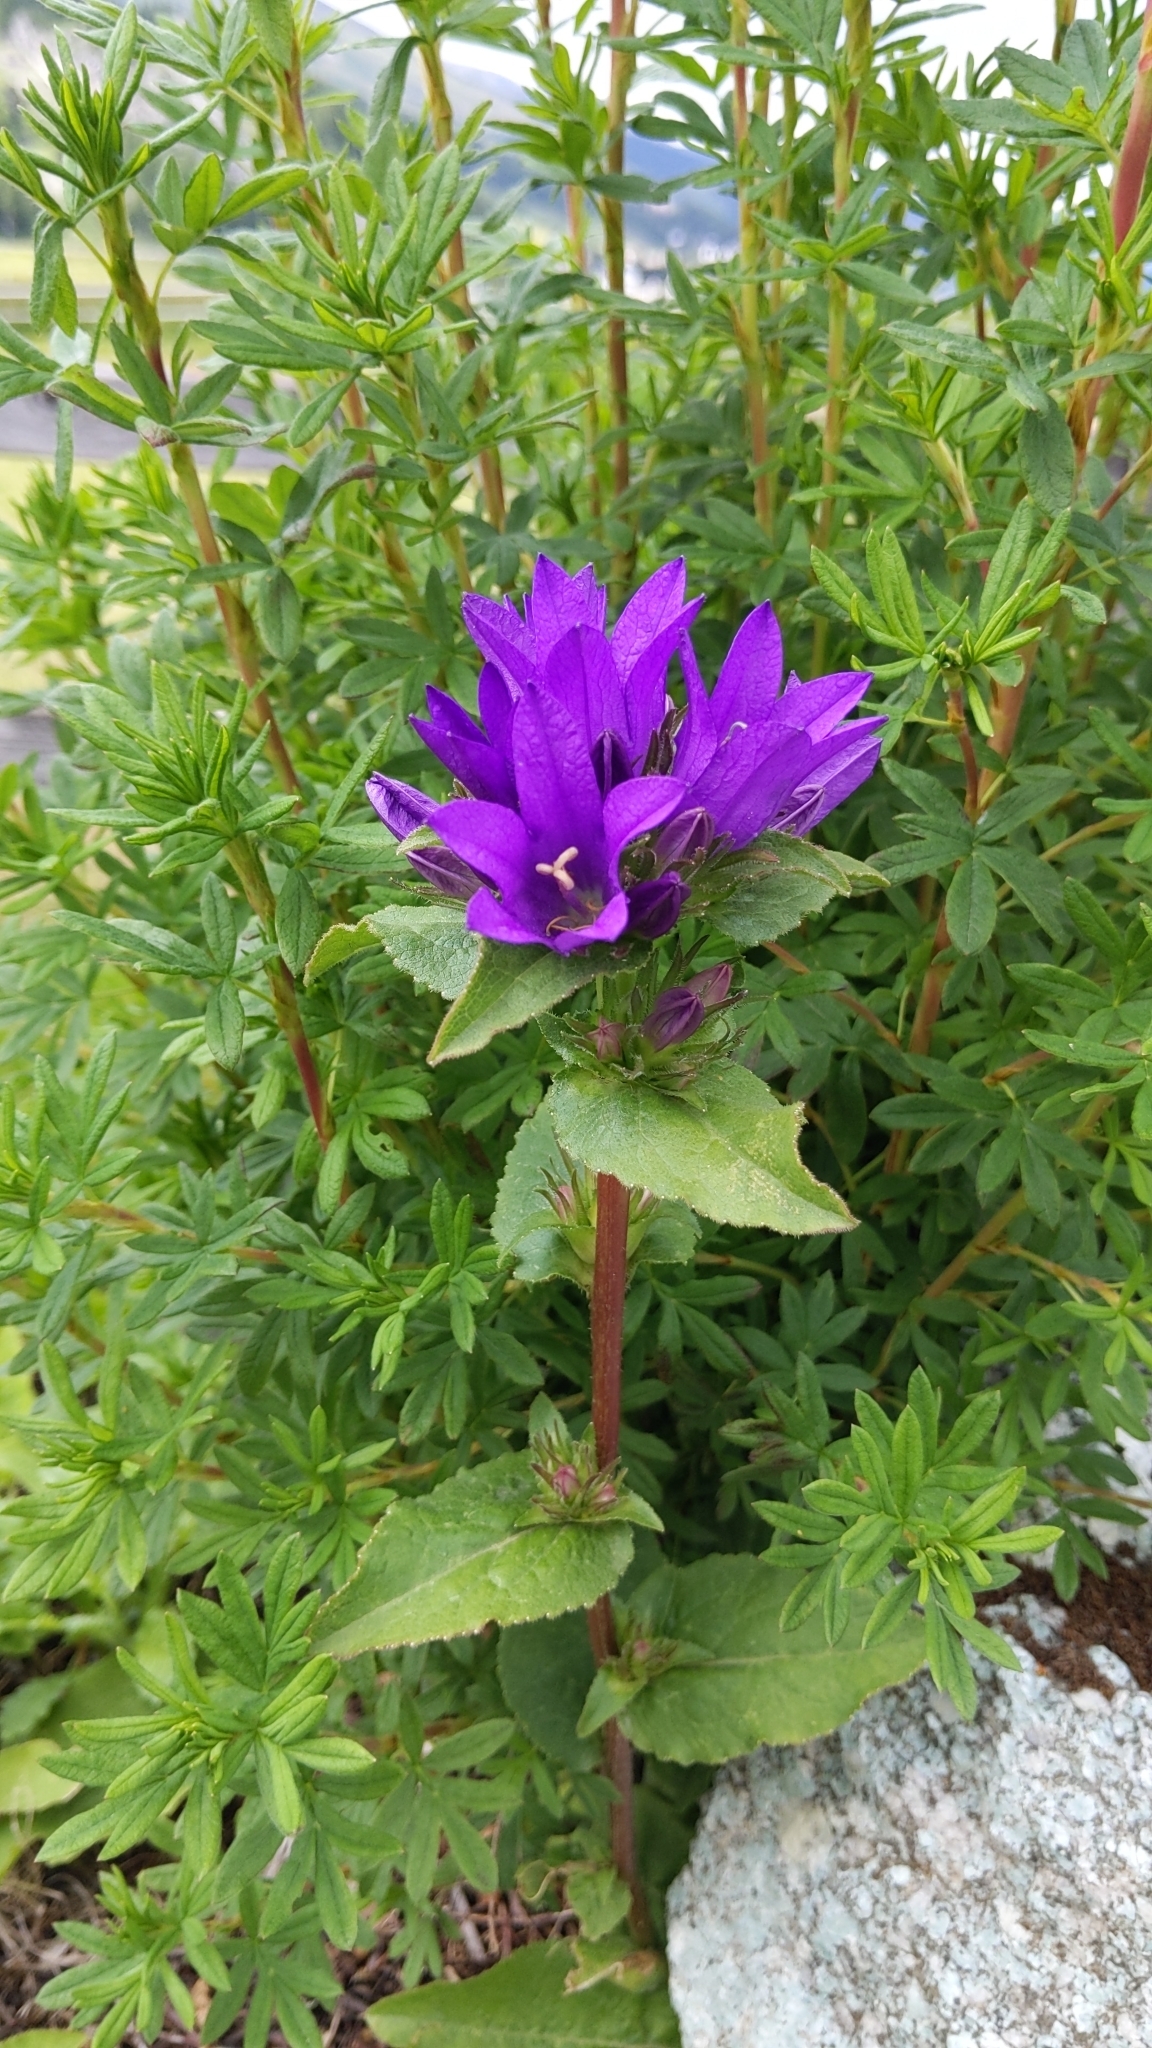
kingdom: Plantae
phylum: Tracheophyta
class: Magnoliopsida
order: Asterales
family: Campanulaceae
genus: Campanula
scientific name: Campanula glomerata
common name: Clustered bellflower
